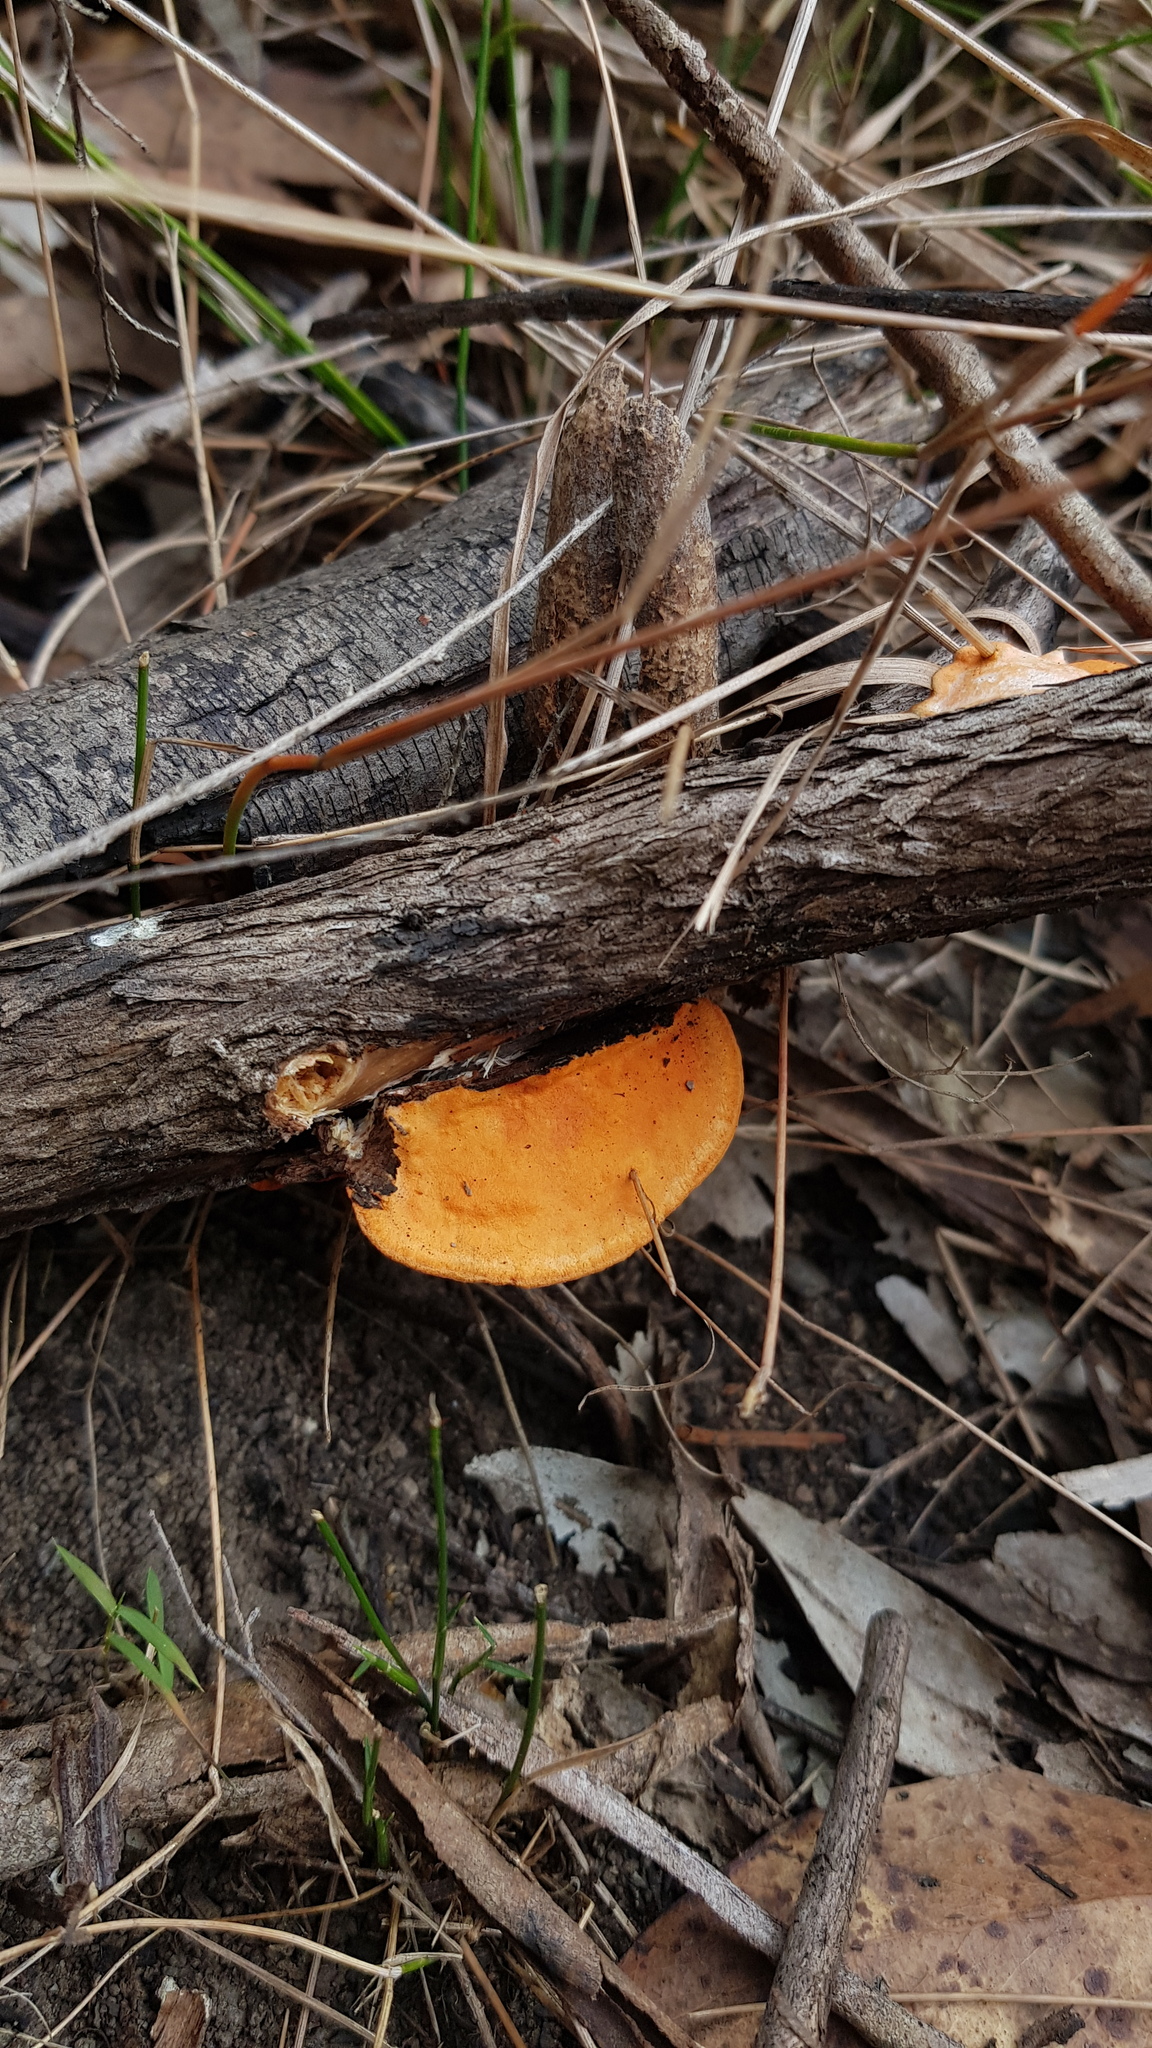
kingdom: Fungi
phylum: Basidiomycota
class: Agaricomycetes
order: Polyporales
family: Polyporaceae
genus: Trametes
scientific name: Trametes coccinea
